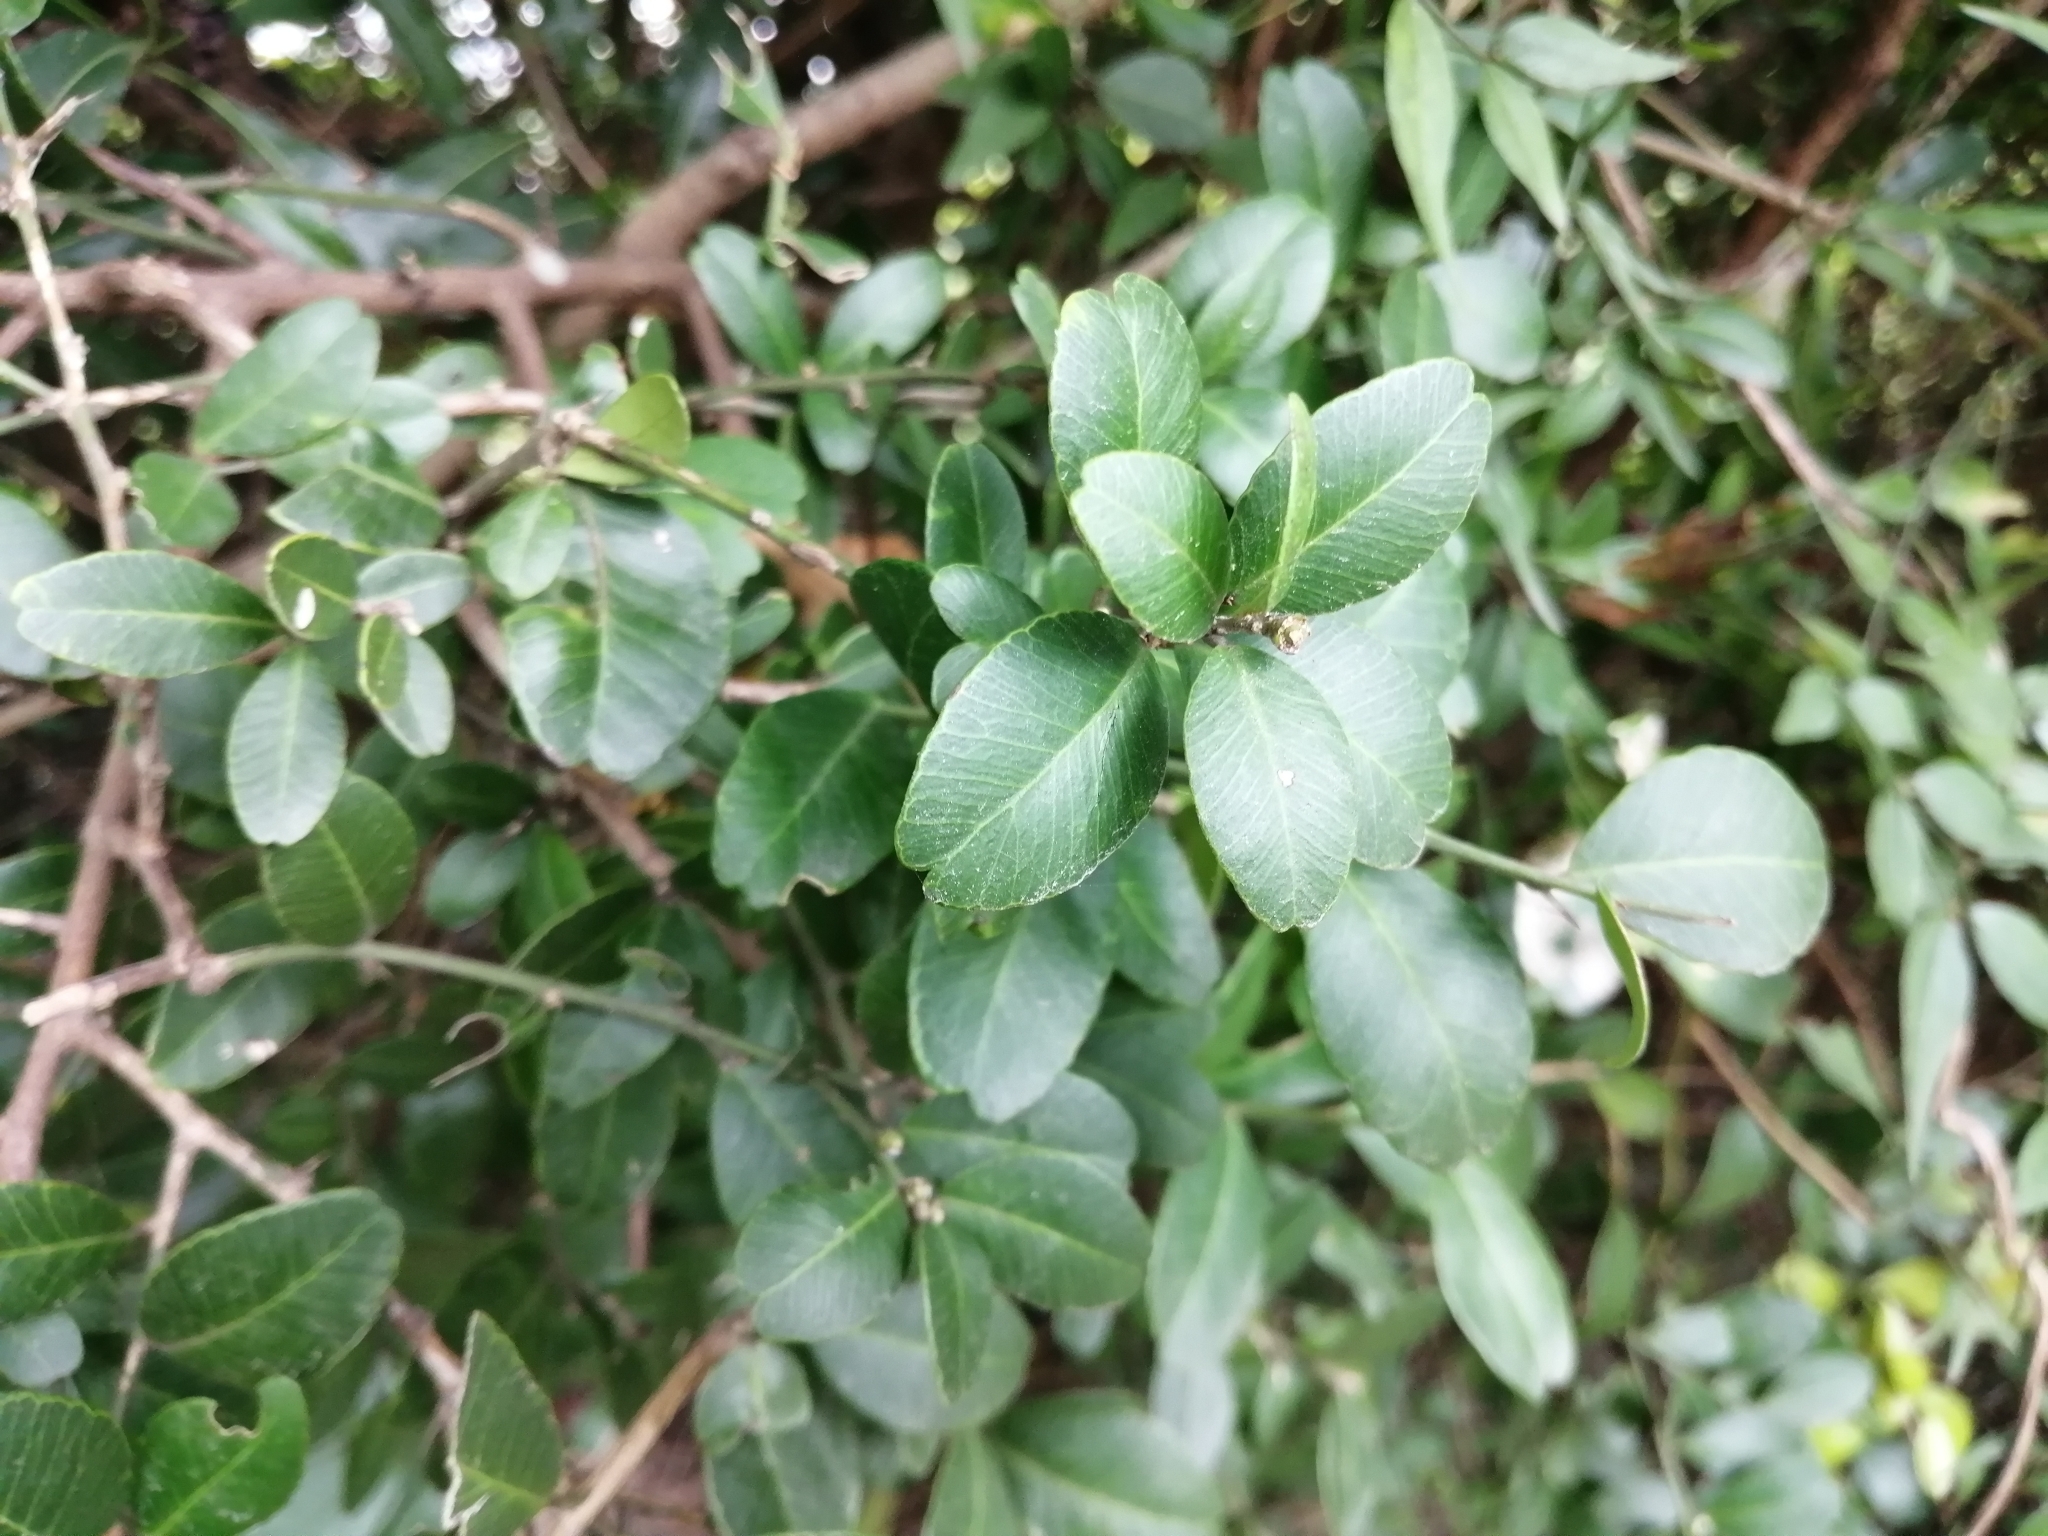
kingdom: Plantae
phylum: Tracheophyta
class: Magnoliopsida
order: Sapindales
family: Rutaceae
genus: Atalantia
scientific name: Atalantia buxifolia
